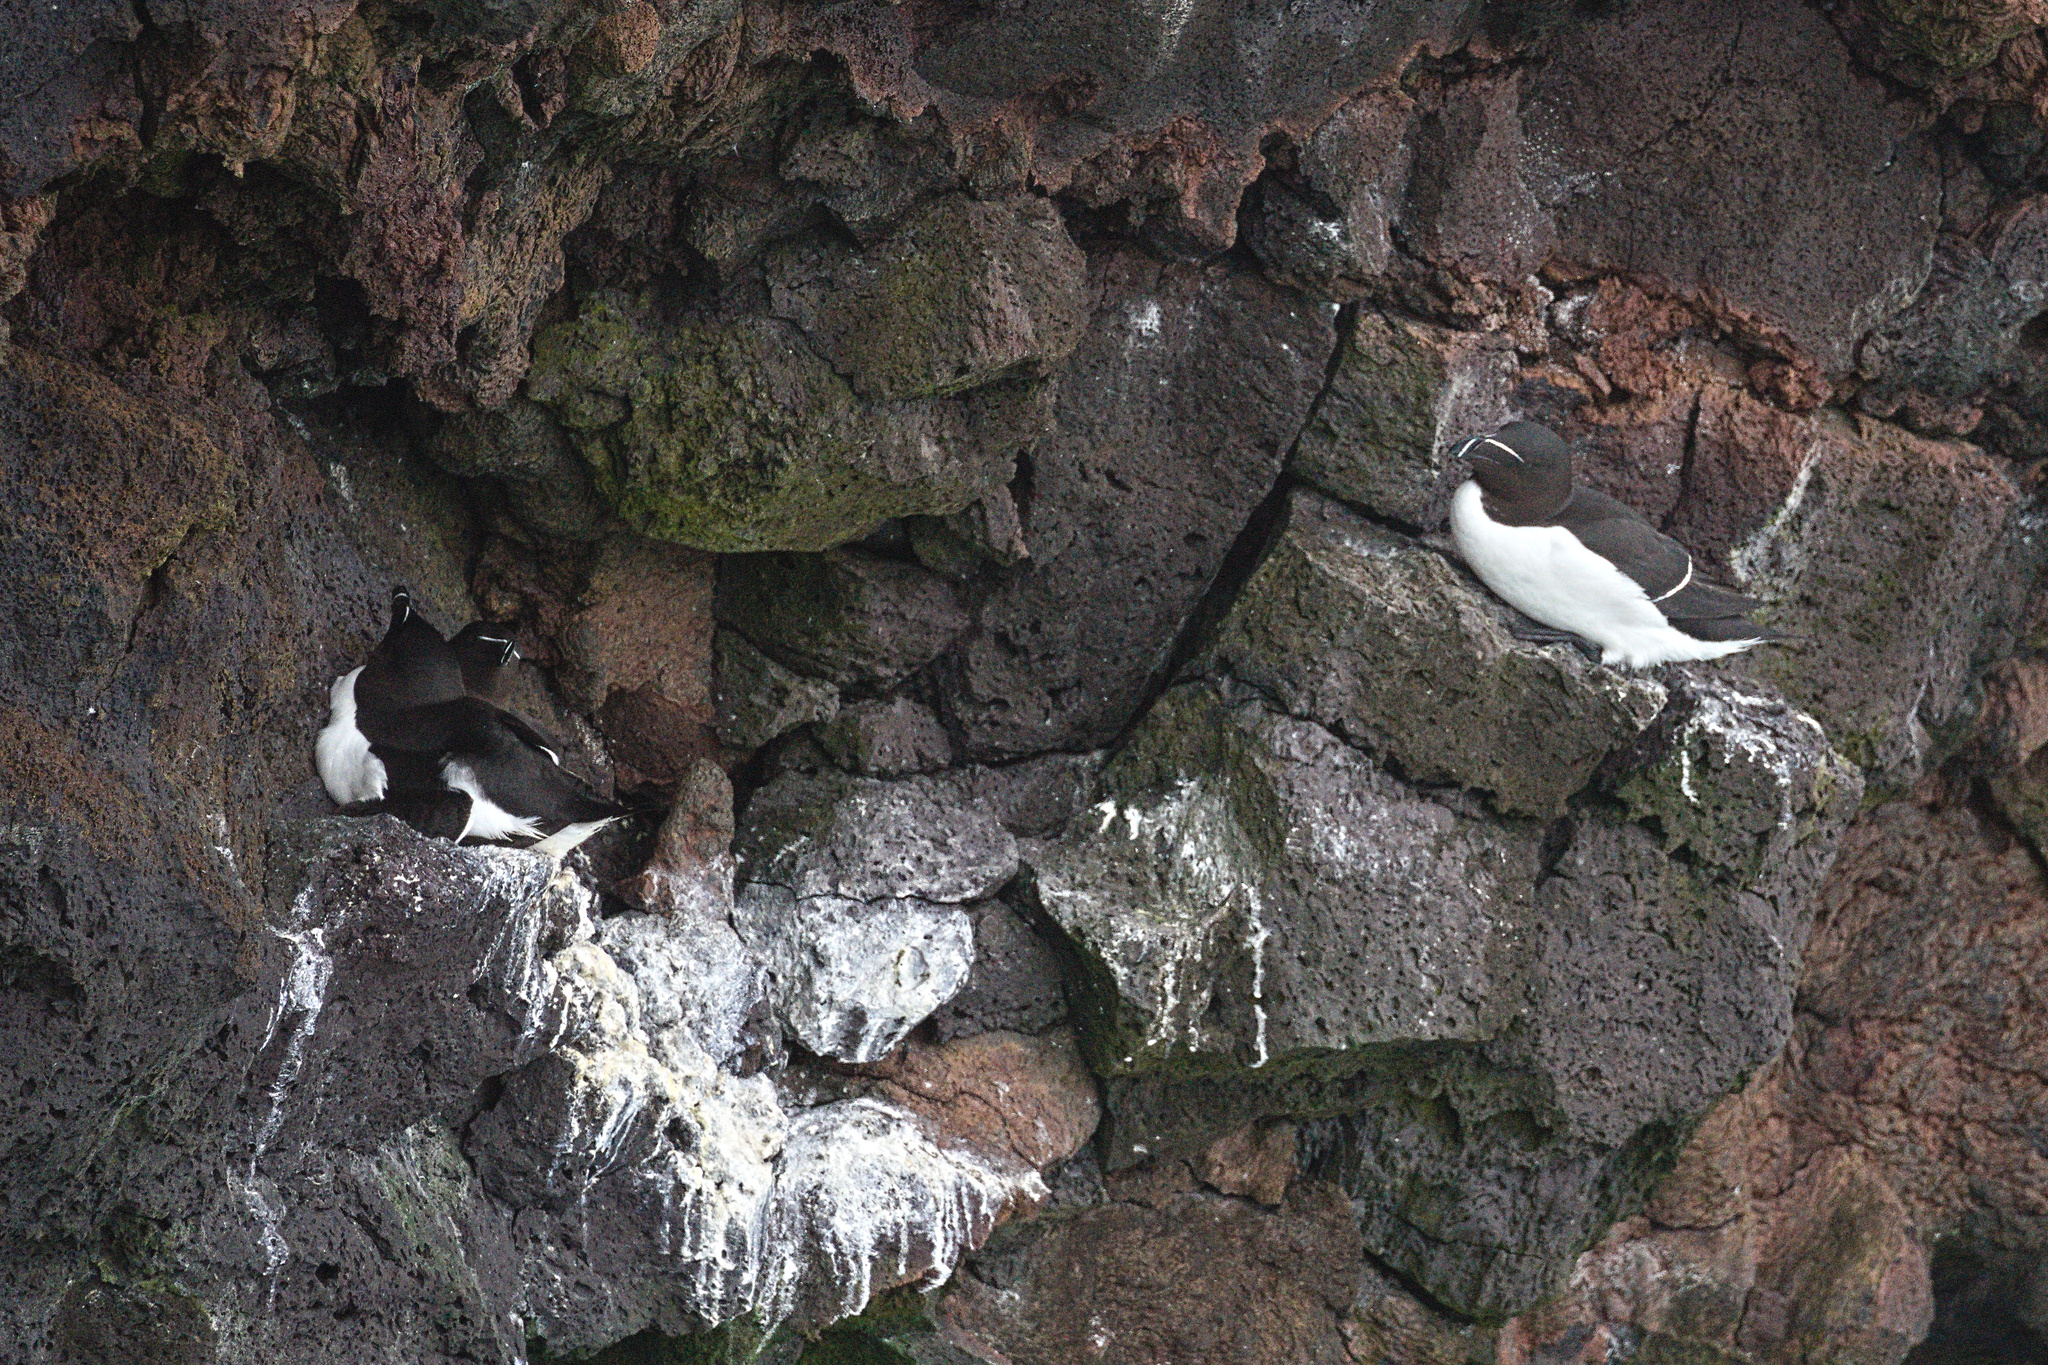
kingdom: Animalia
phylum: Chordata
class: Aves
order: Charadriiformes
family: Alcidae
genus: Alca
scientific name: Alca torda
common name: Razorbill
